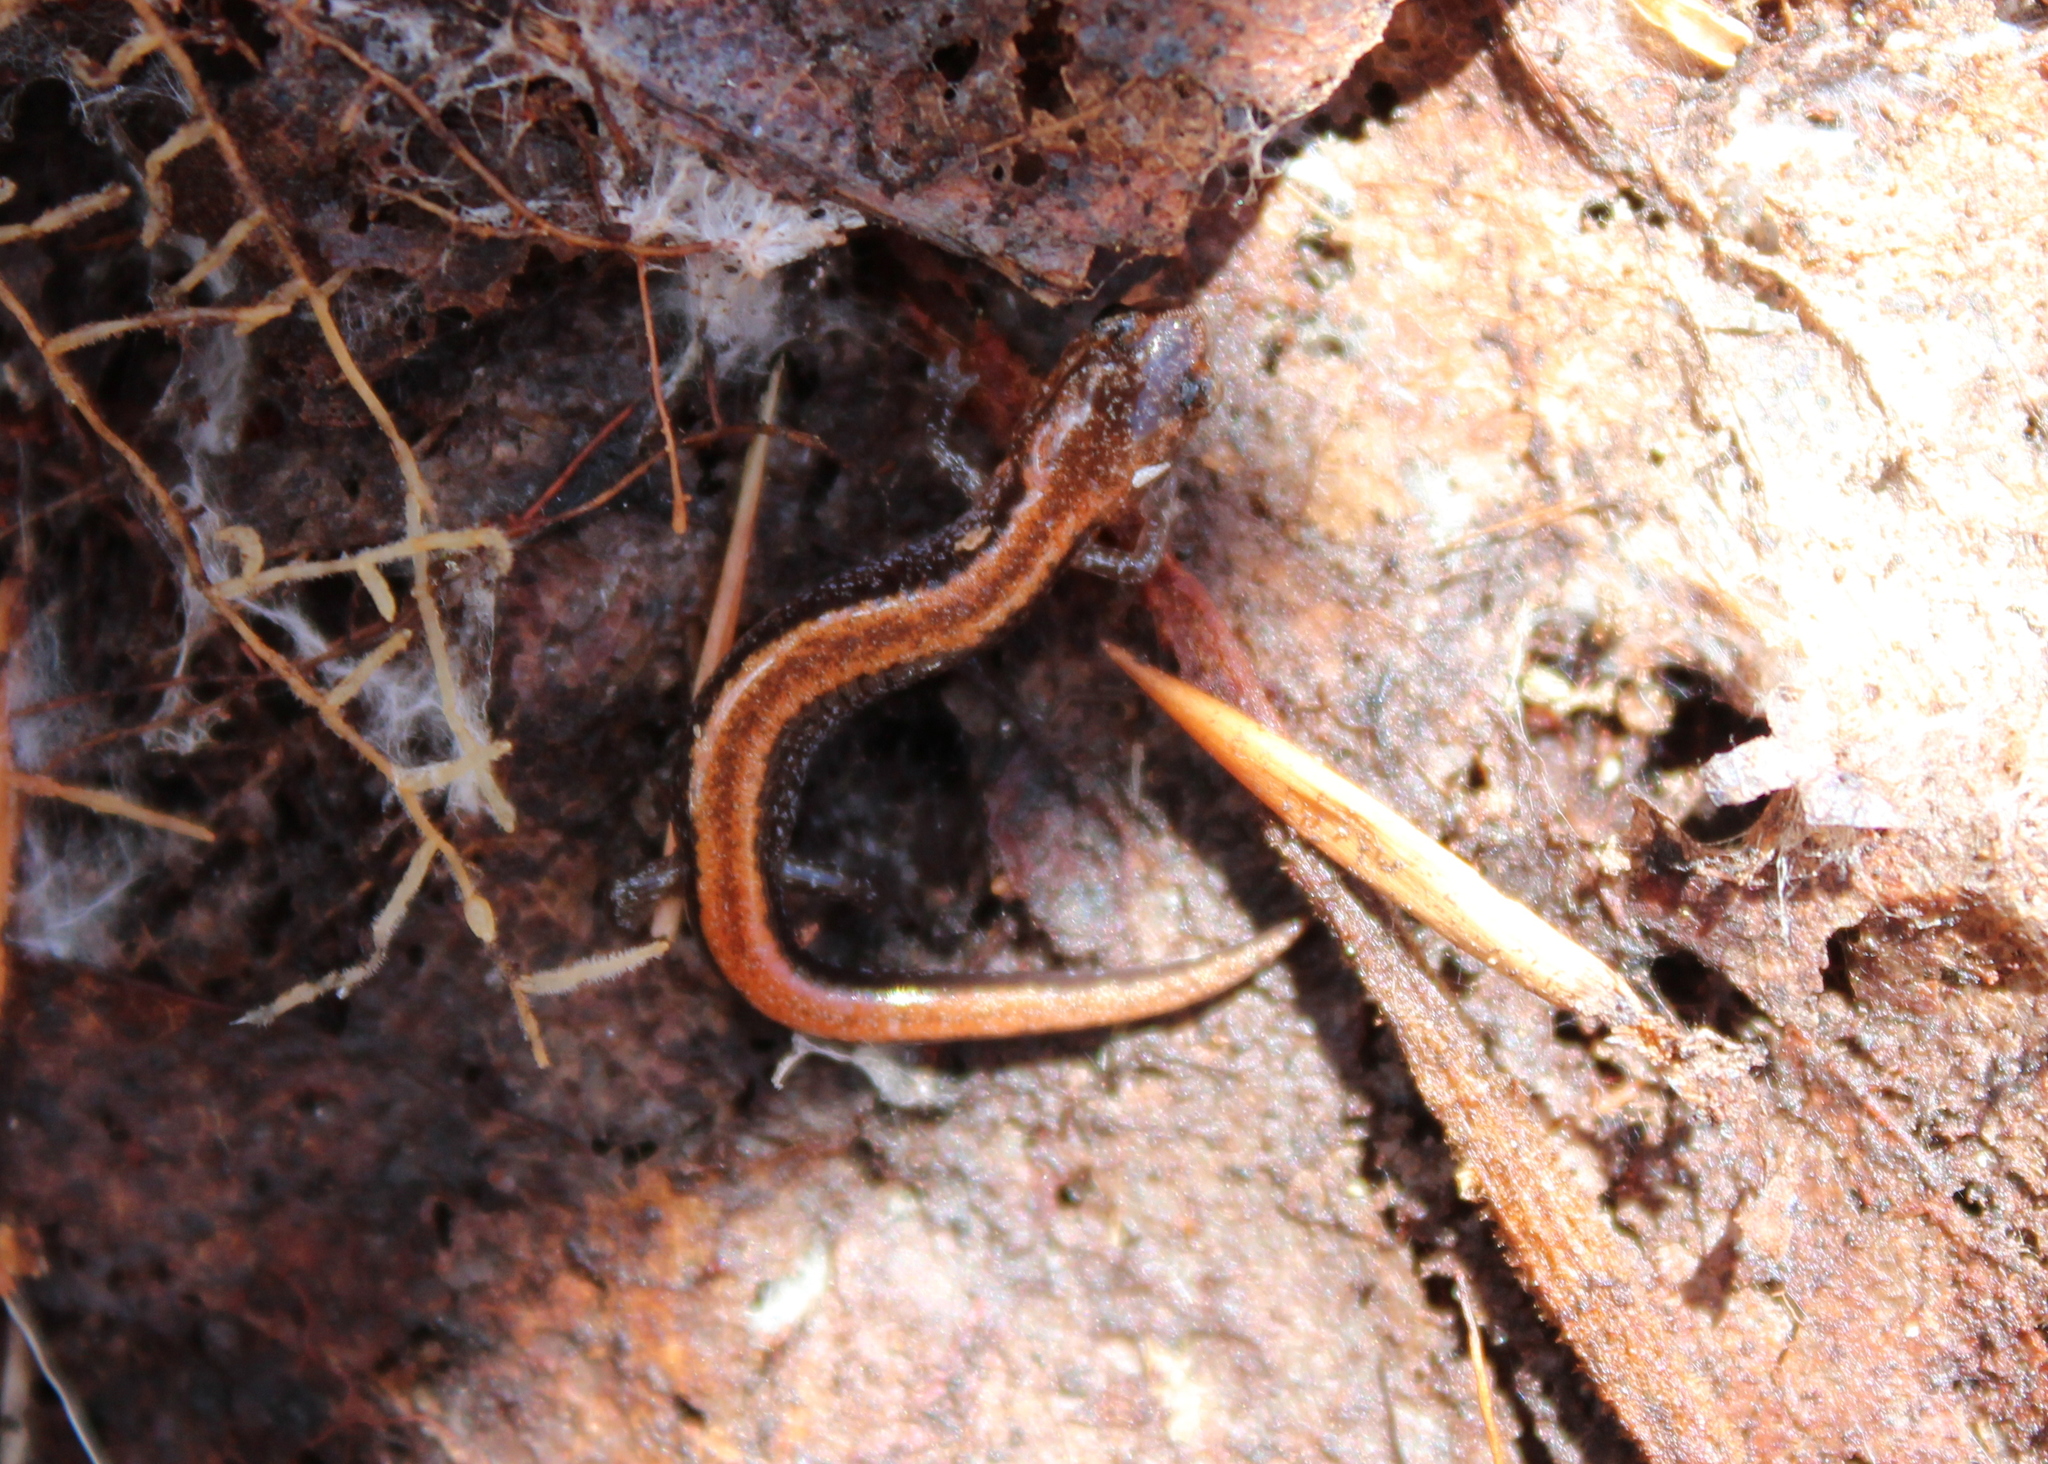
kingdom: Animalia
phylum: Chordata
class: Amphibia
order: Caudata
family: Plethodontidae
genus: Plethodon
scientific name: Plethodon cinereus
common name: Redback salamander
